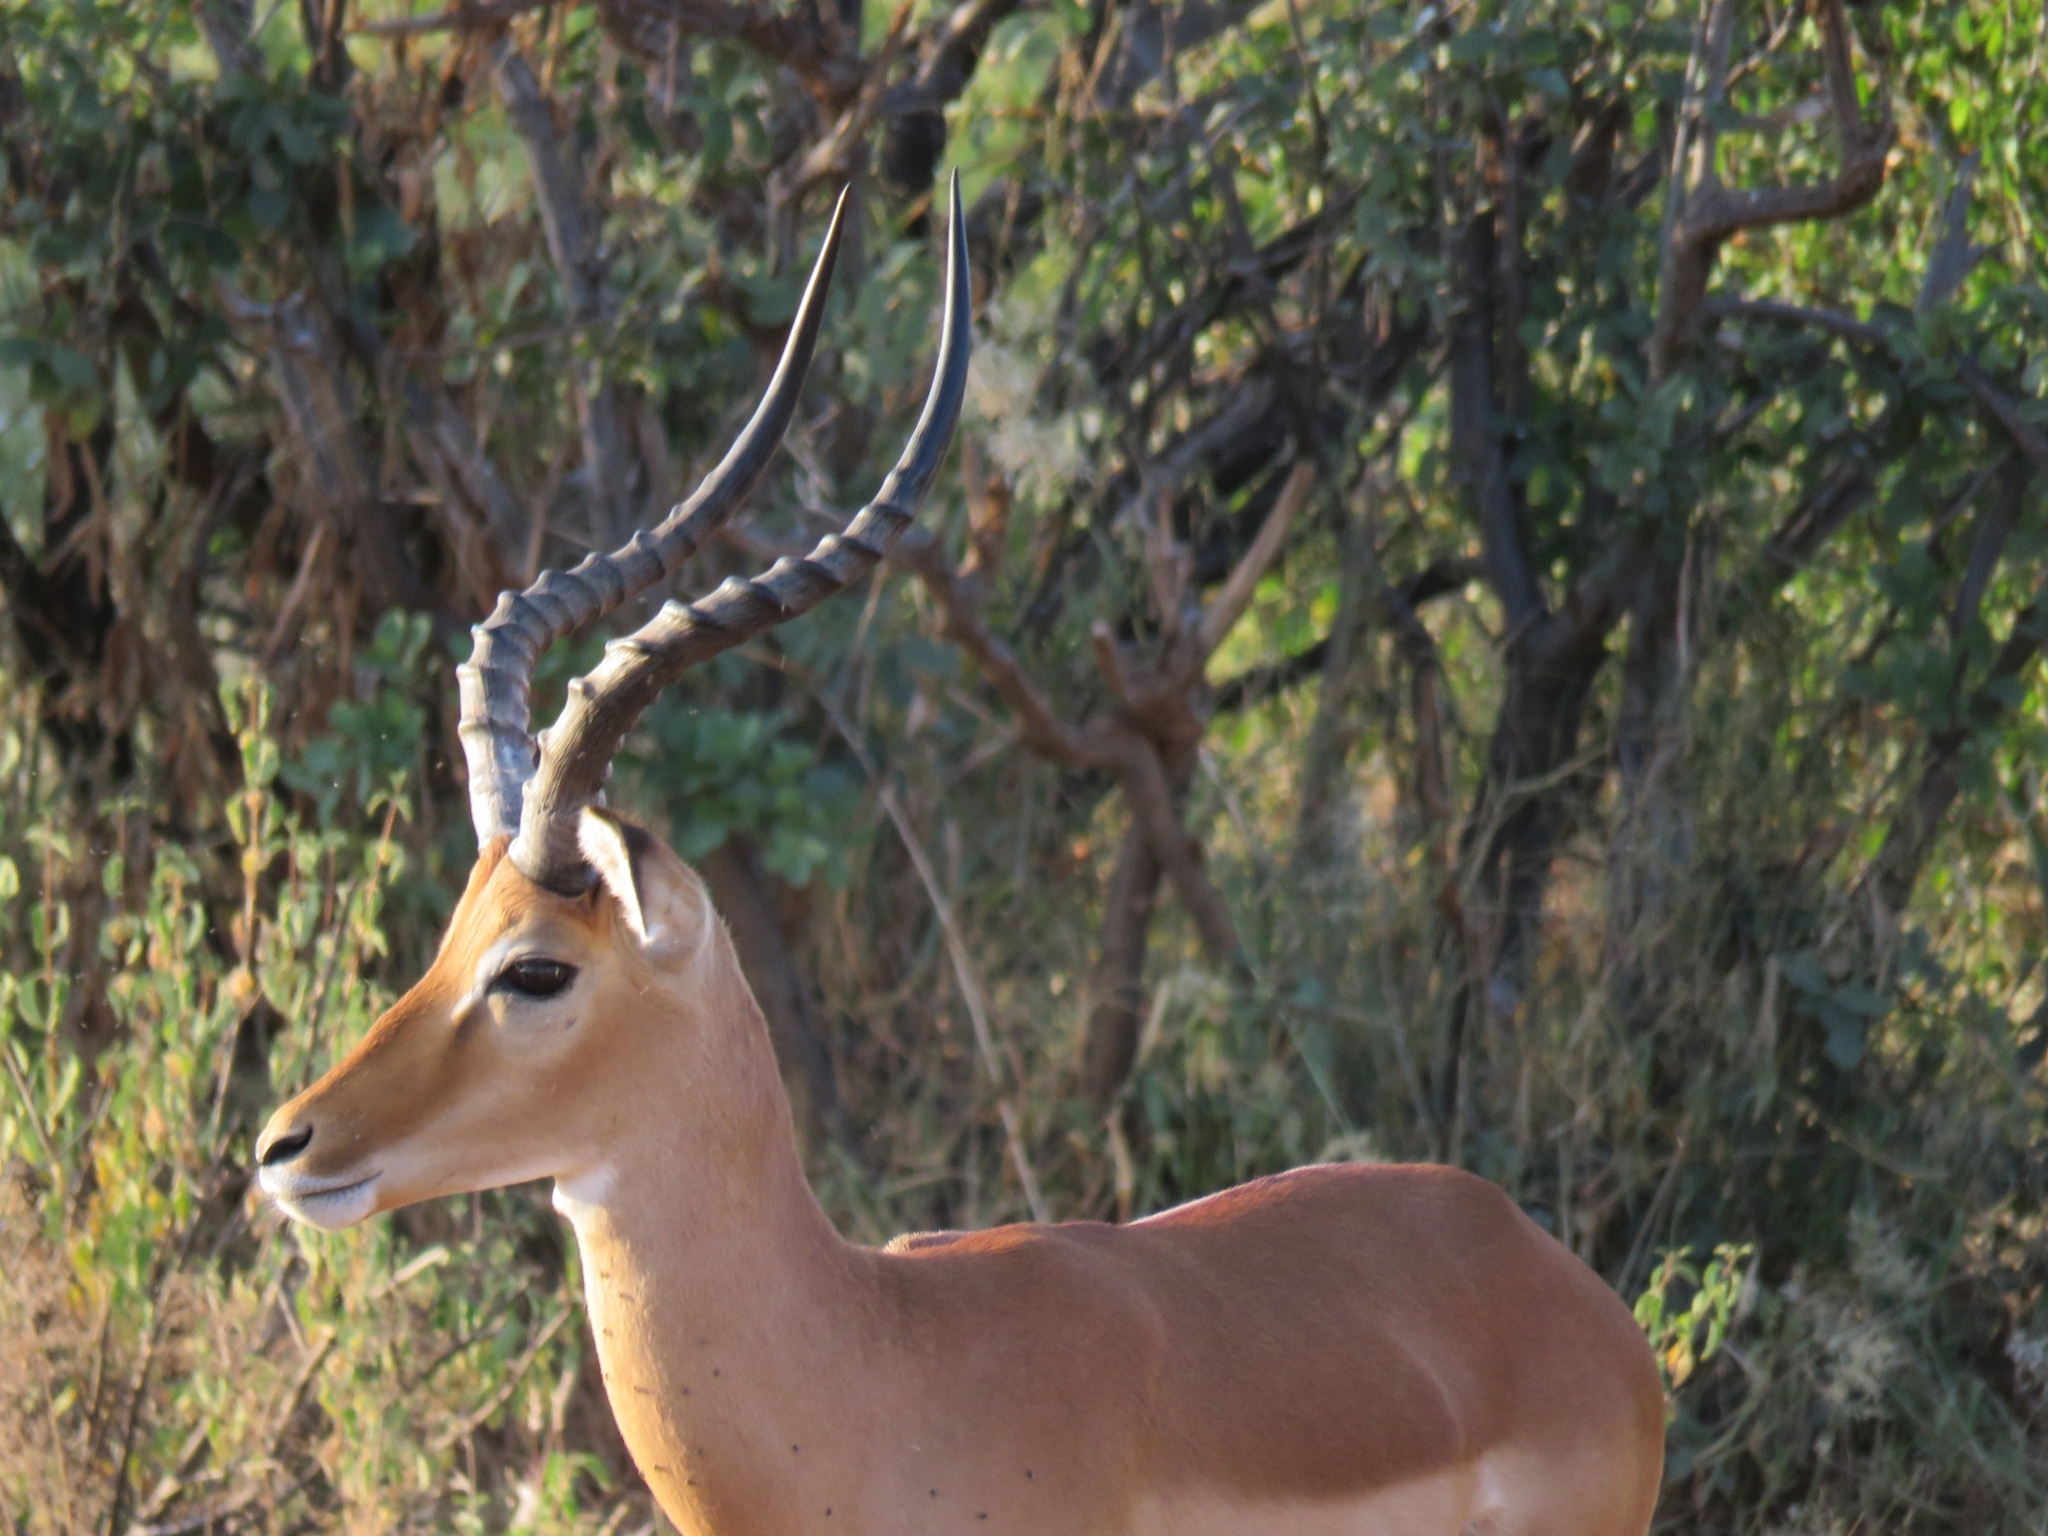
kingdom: Animalia
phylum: Chordata
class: Mammalia
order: Artiodactyla
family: Bovidae
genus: Aepyceros
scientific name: Aepyceros melampus
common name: Impala
